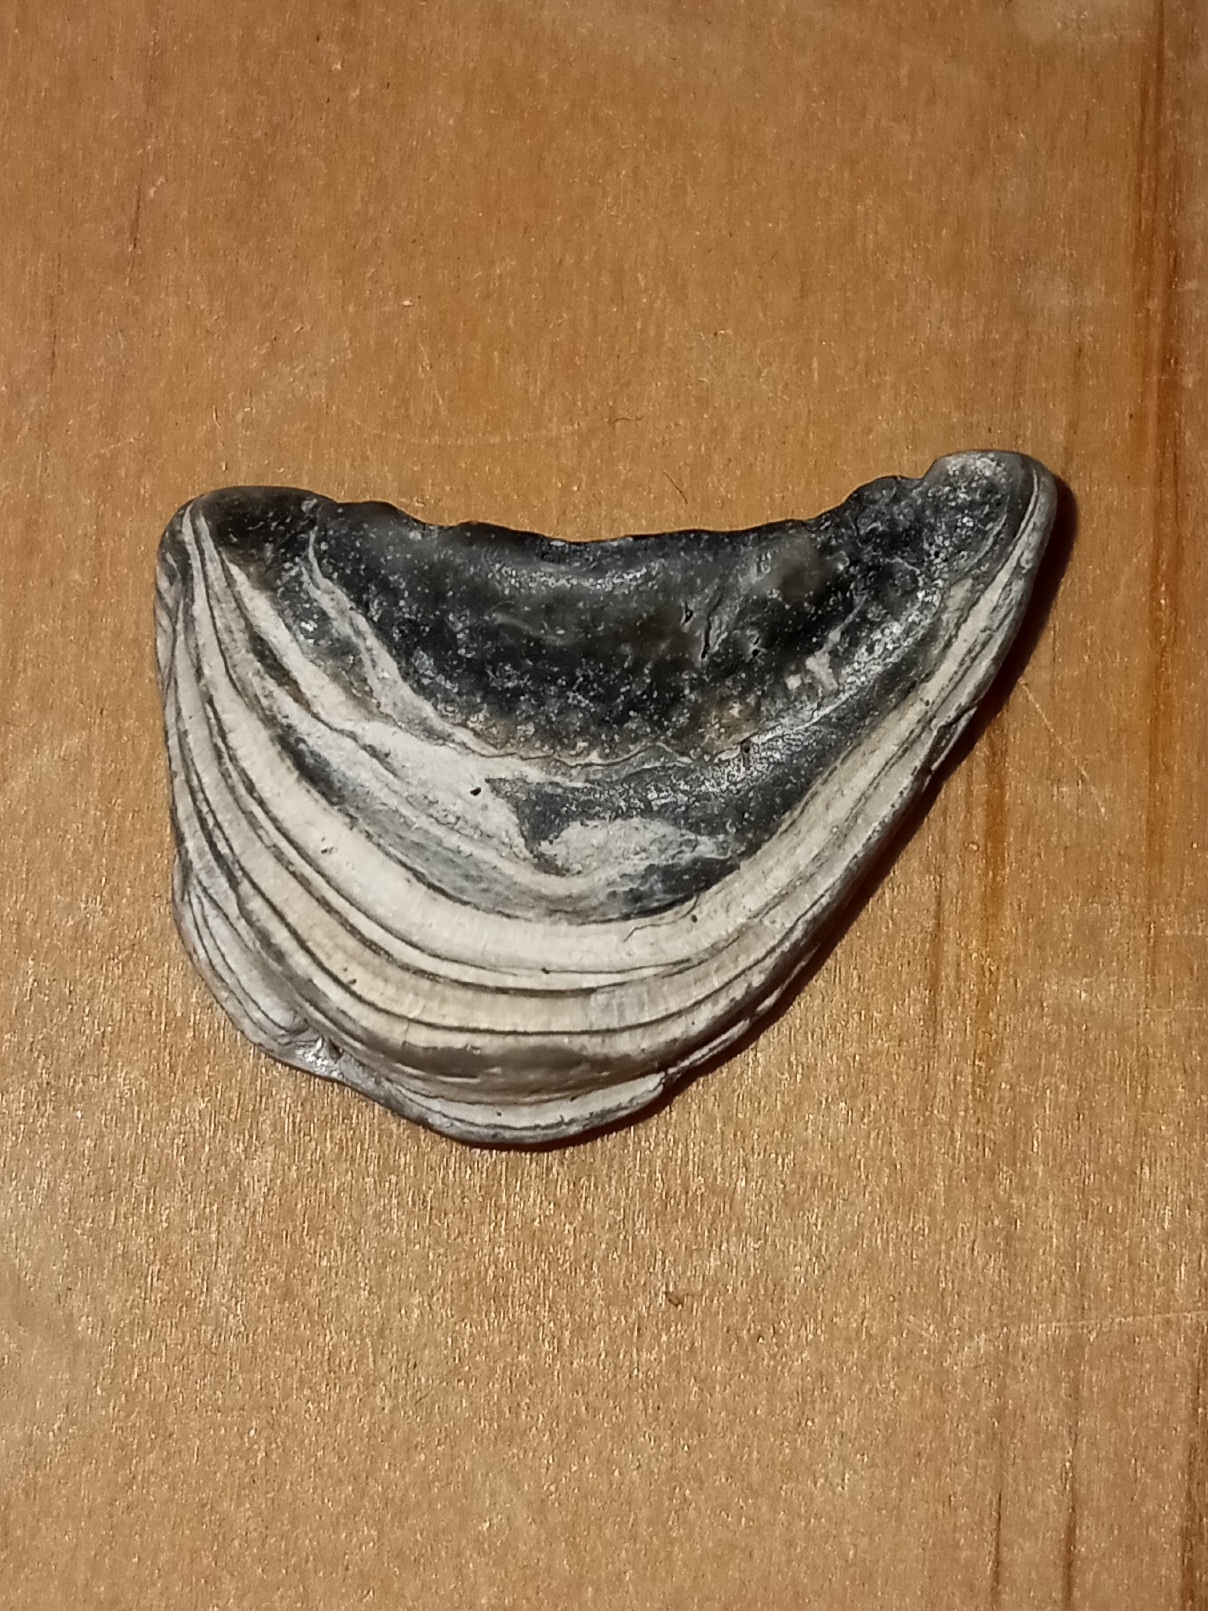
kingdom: Animalia
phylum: Mollusca
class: Bivalvia
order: Ostreida
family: Ostreidae
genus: Crassostrea
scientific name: Crassostrea virginica
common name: American oyster
